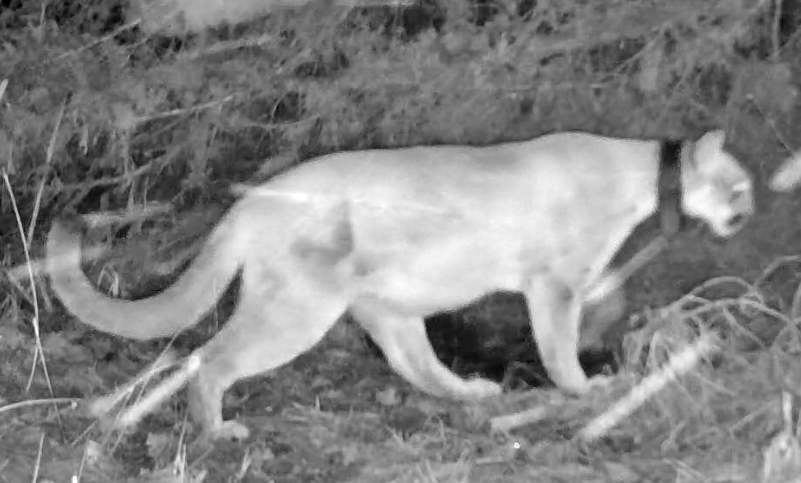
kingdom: Animalia
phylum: Chordata
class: Mammalia
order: Carnivora
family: Felidae
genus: Puma
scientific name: Puma concolor
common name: Puma
